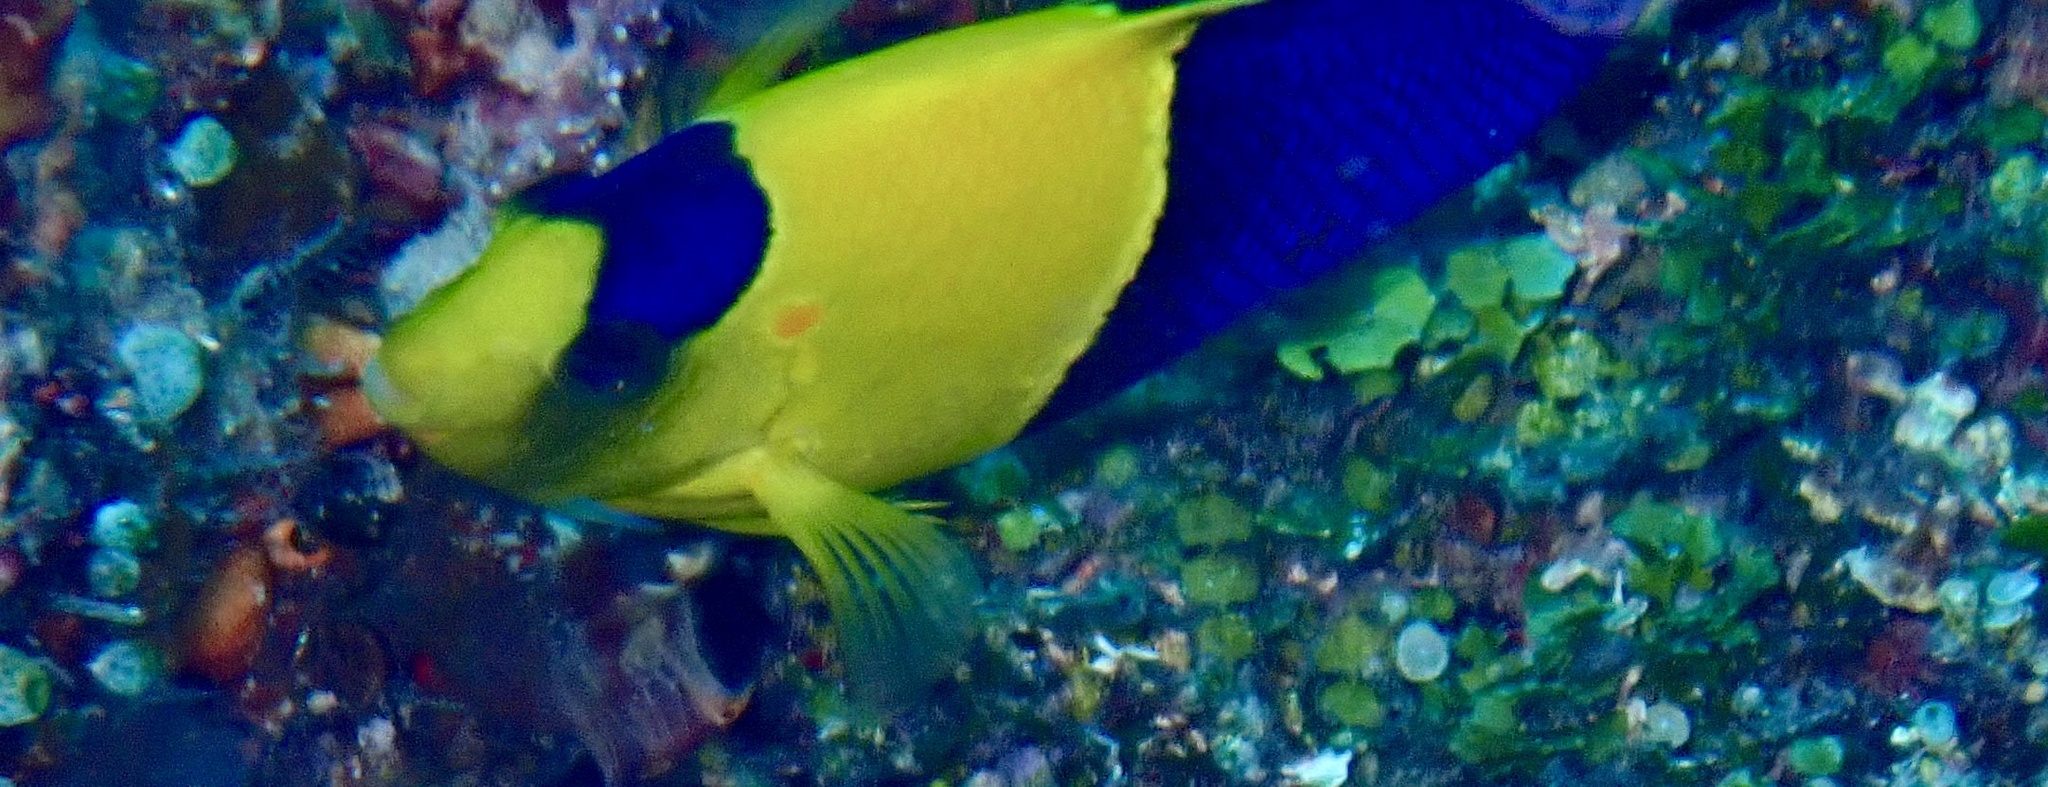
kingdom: Animalia
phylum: Chordata
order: Perciformes
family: Pomacanthidae
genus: Centropyge
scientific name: Centropyge bicolor
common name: Bicolor angelfish
